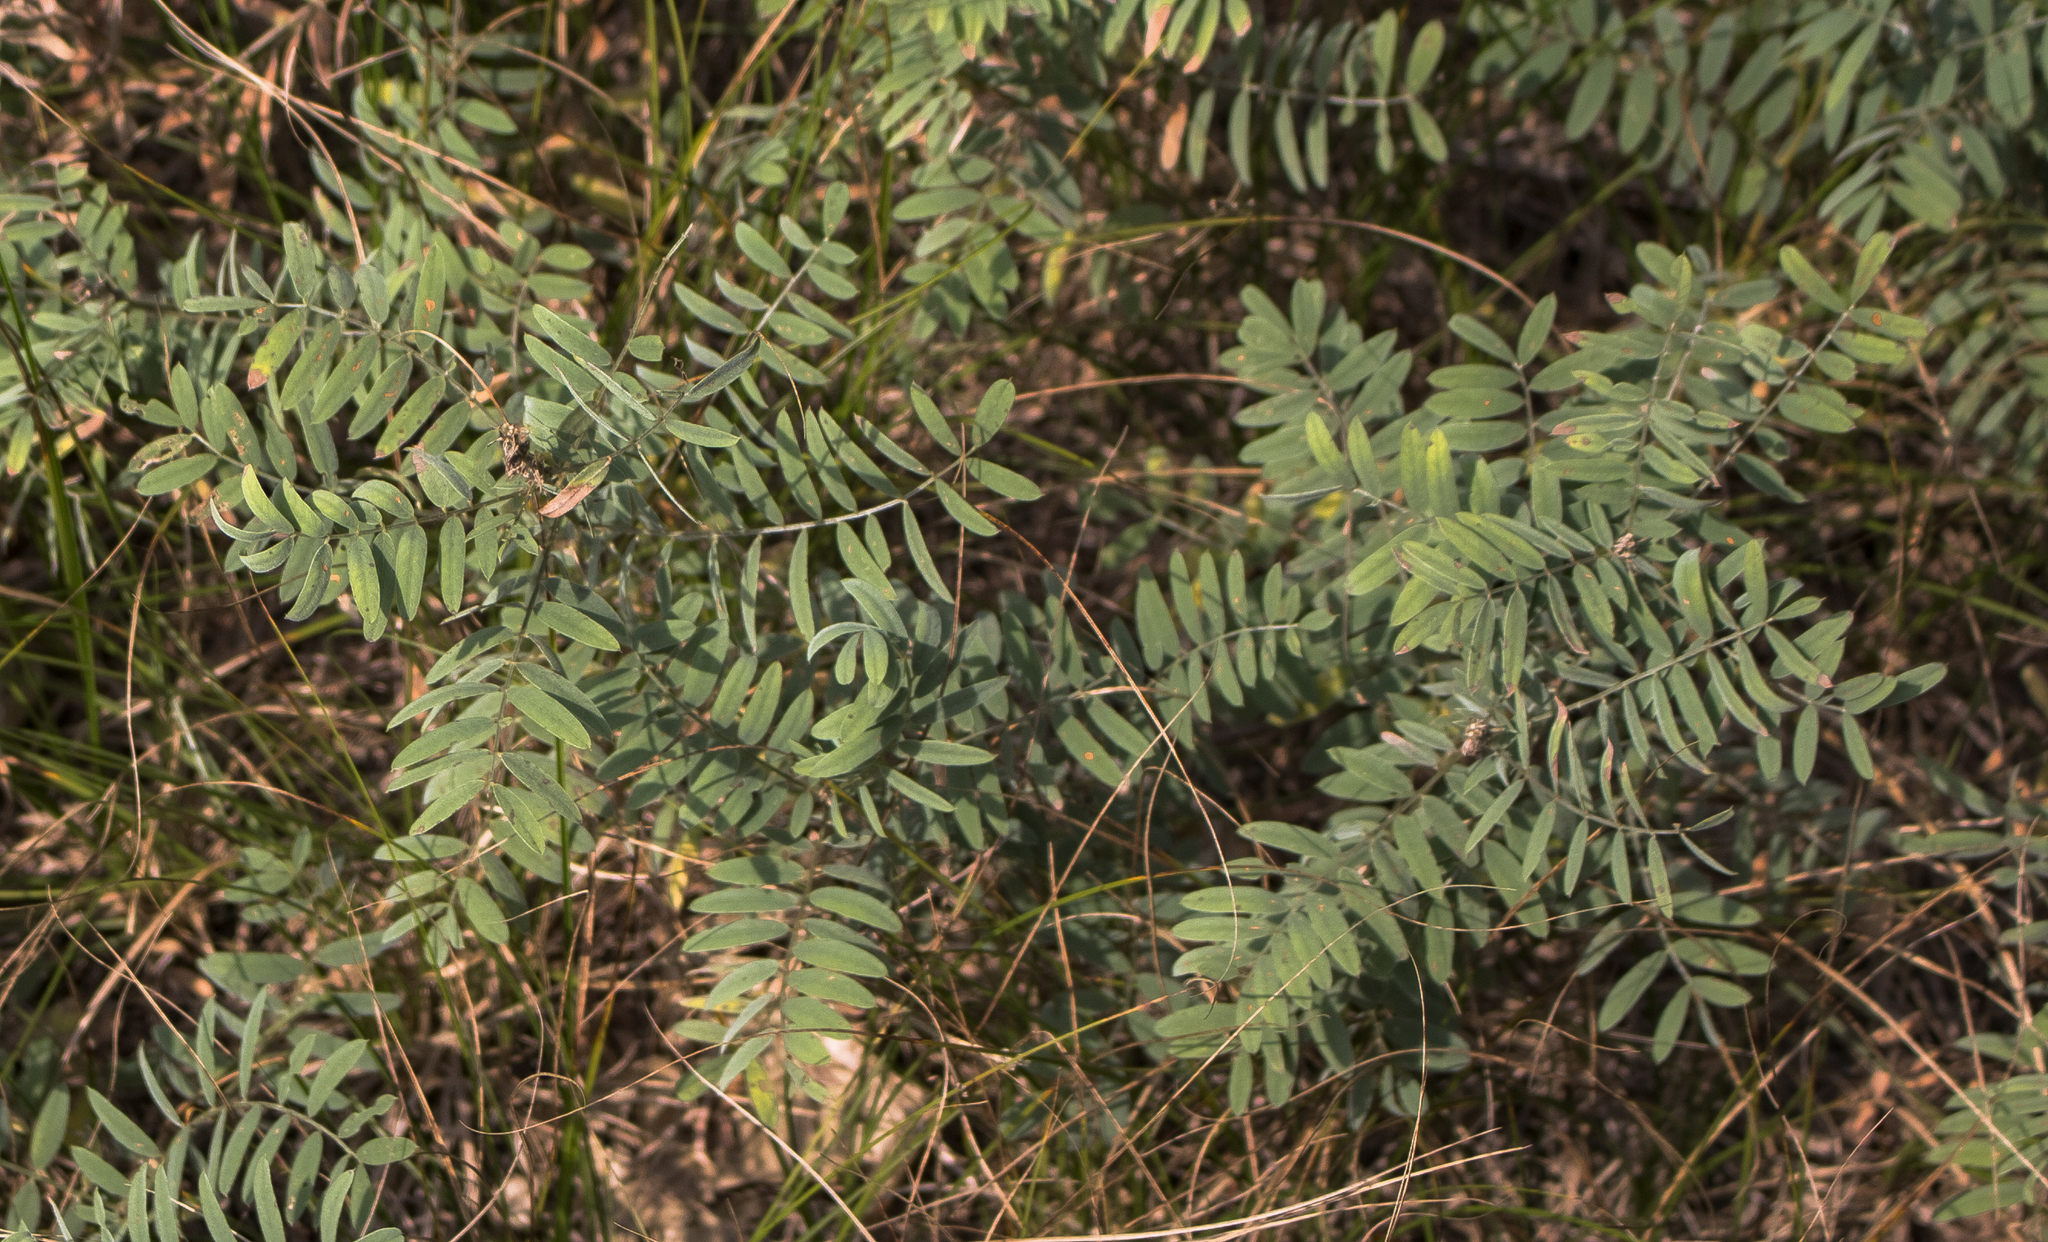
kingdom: Plantae
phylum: Tracheophyta
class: Magnoliopsida
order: Fabales
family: Fabaceae
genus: Tephrosia
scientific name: Tephrosia virginiana
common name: Rabbit-pea
